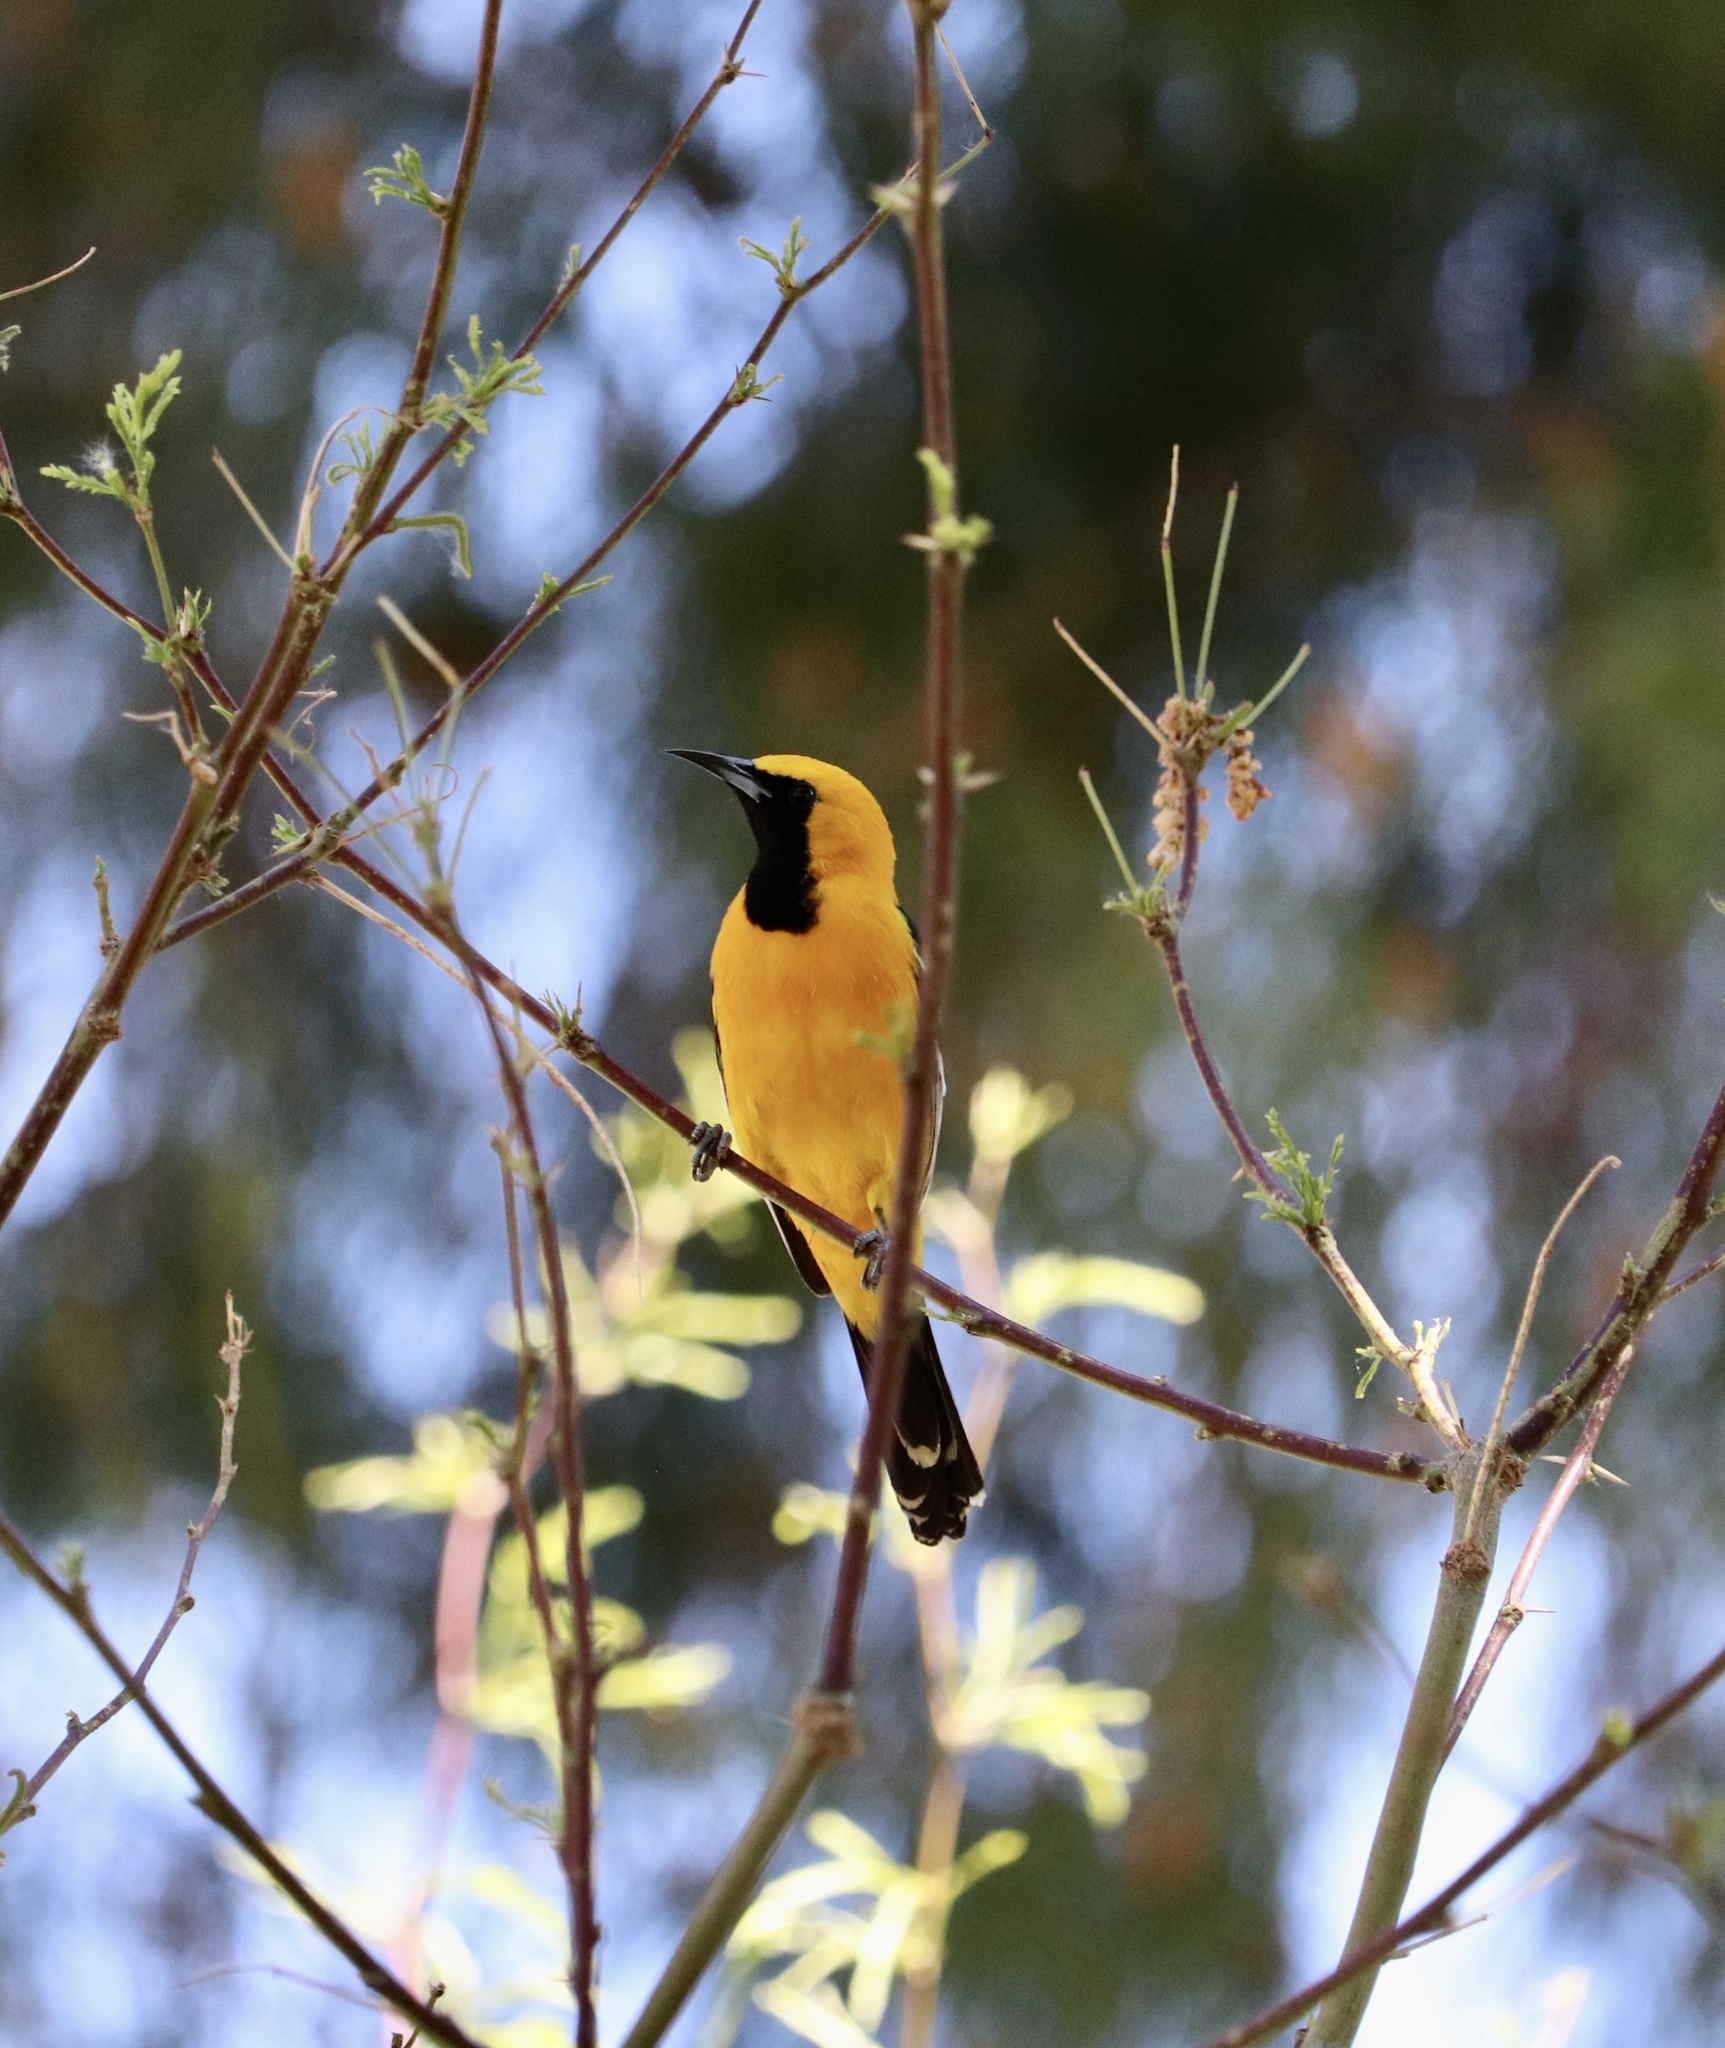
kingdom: Animalia
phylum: Chordata
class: Aves
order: Passeriformes
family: Icteridae
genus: Icterus
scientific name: Icterus cucullatus
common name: Hooded oriole
